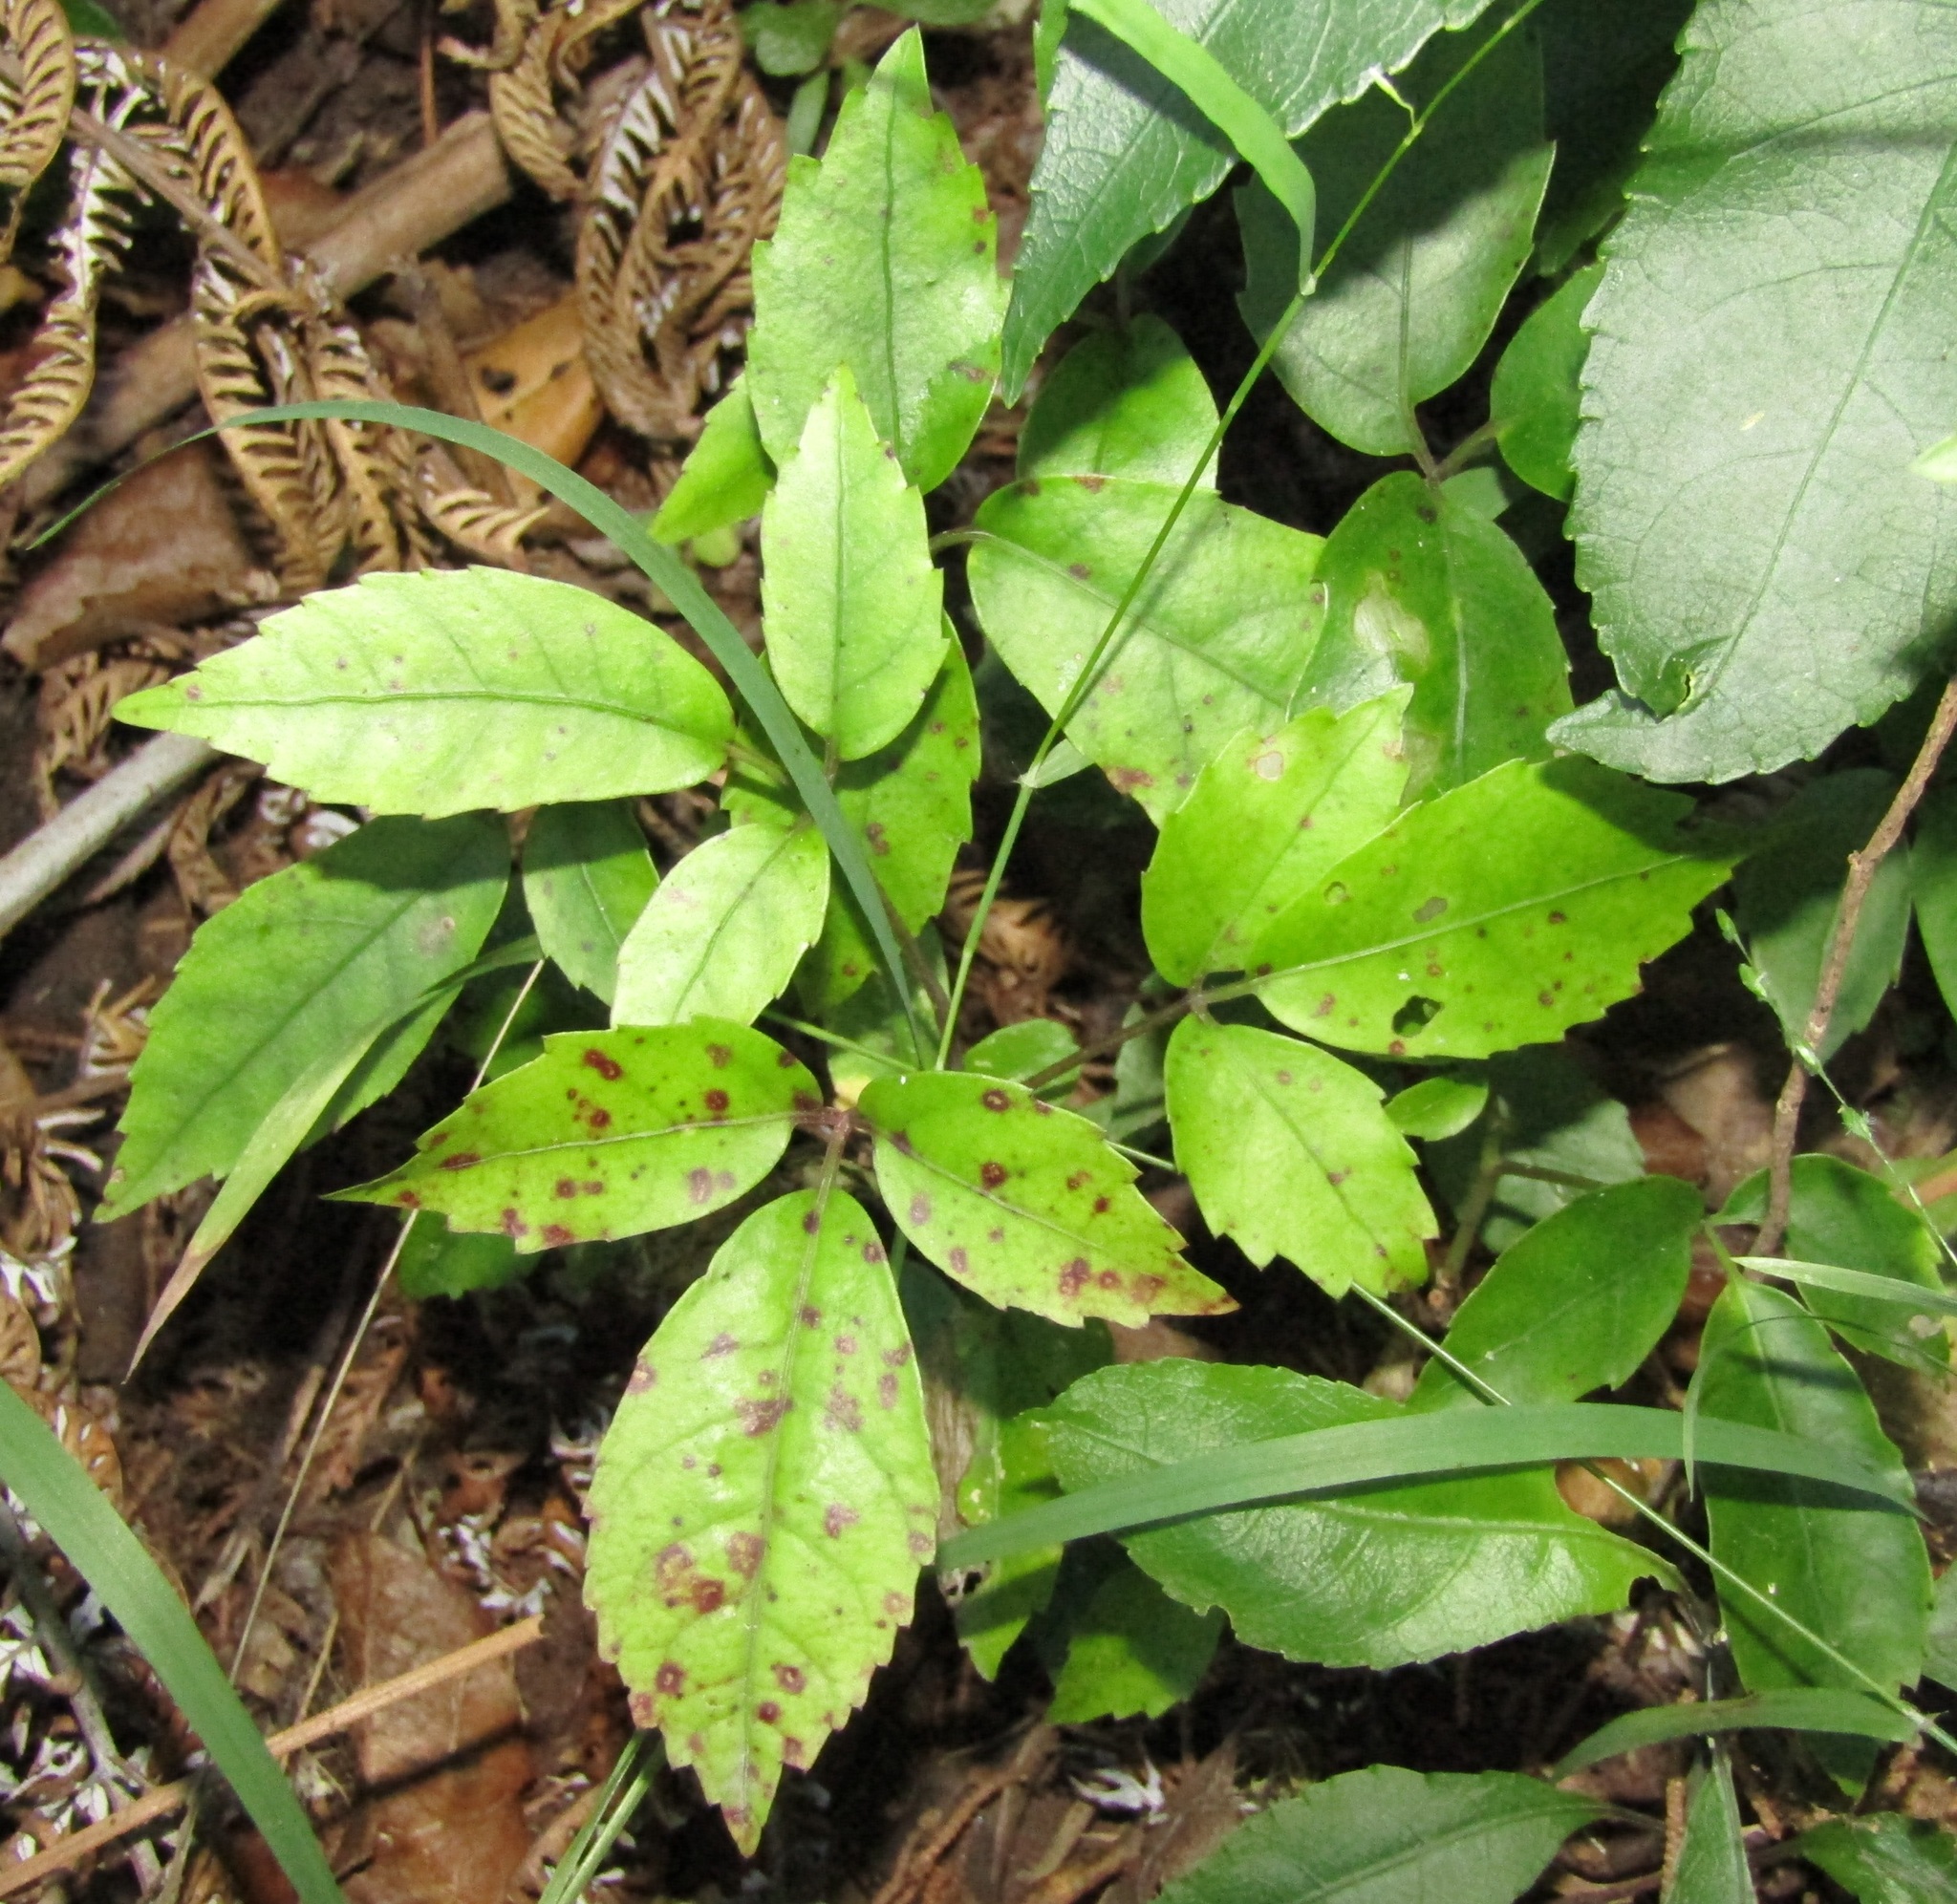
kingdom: Plantae
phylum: Tracheophyta
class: Magnoliopsida
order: Apiales
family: Araliaceae
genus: Neopanax
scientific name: Neopanax arboreus
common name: Five-fingers
